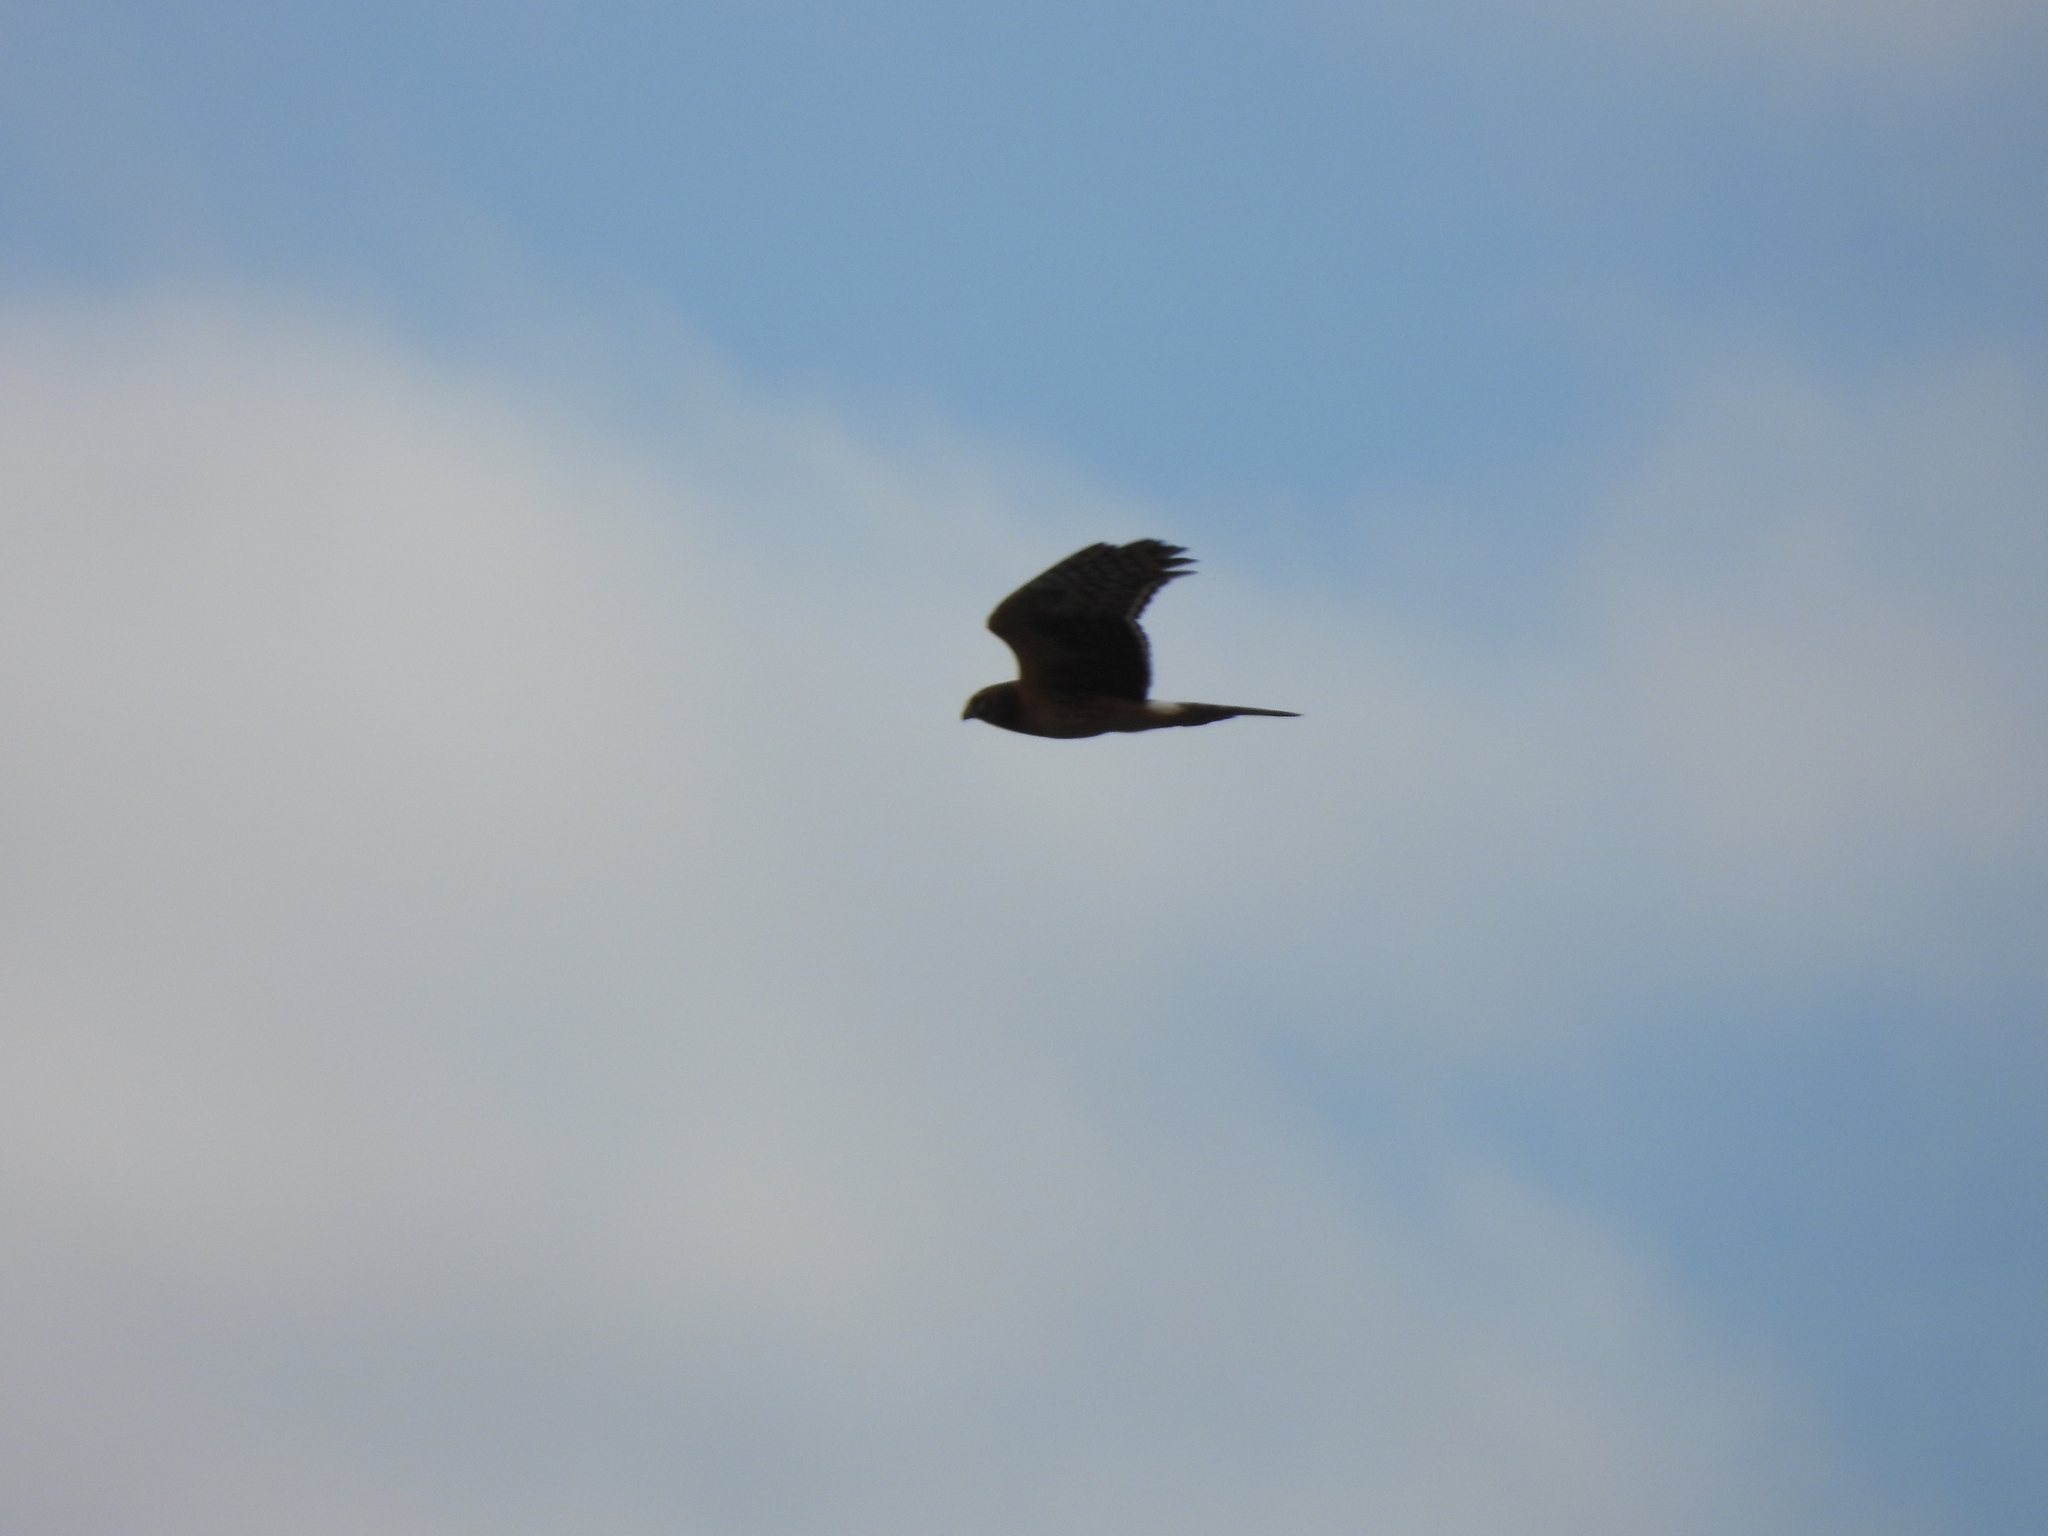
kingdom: Animalia
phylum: Chordata
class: Aves
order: Accipitriformes
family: Accipitridae
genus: Circus
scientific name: Circus cyaneus
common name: Hen harrier
